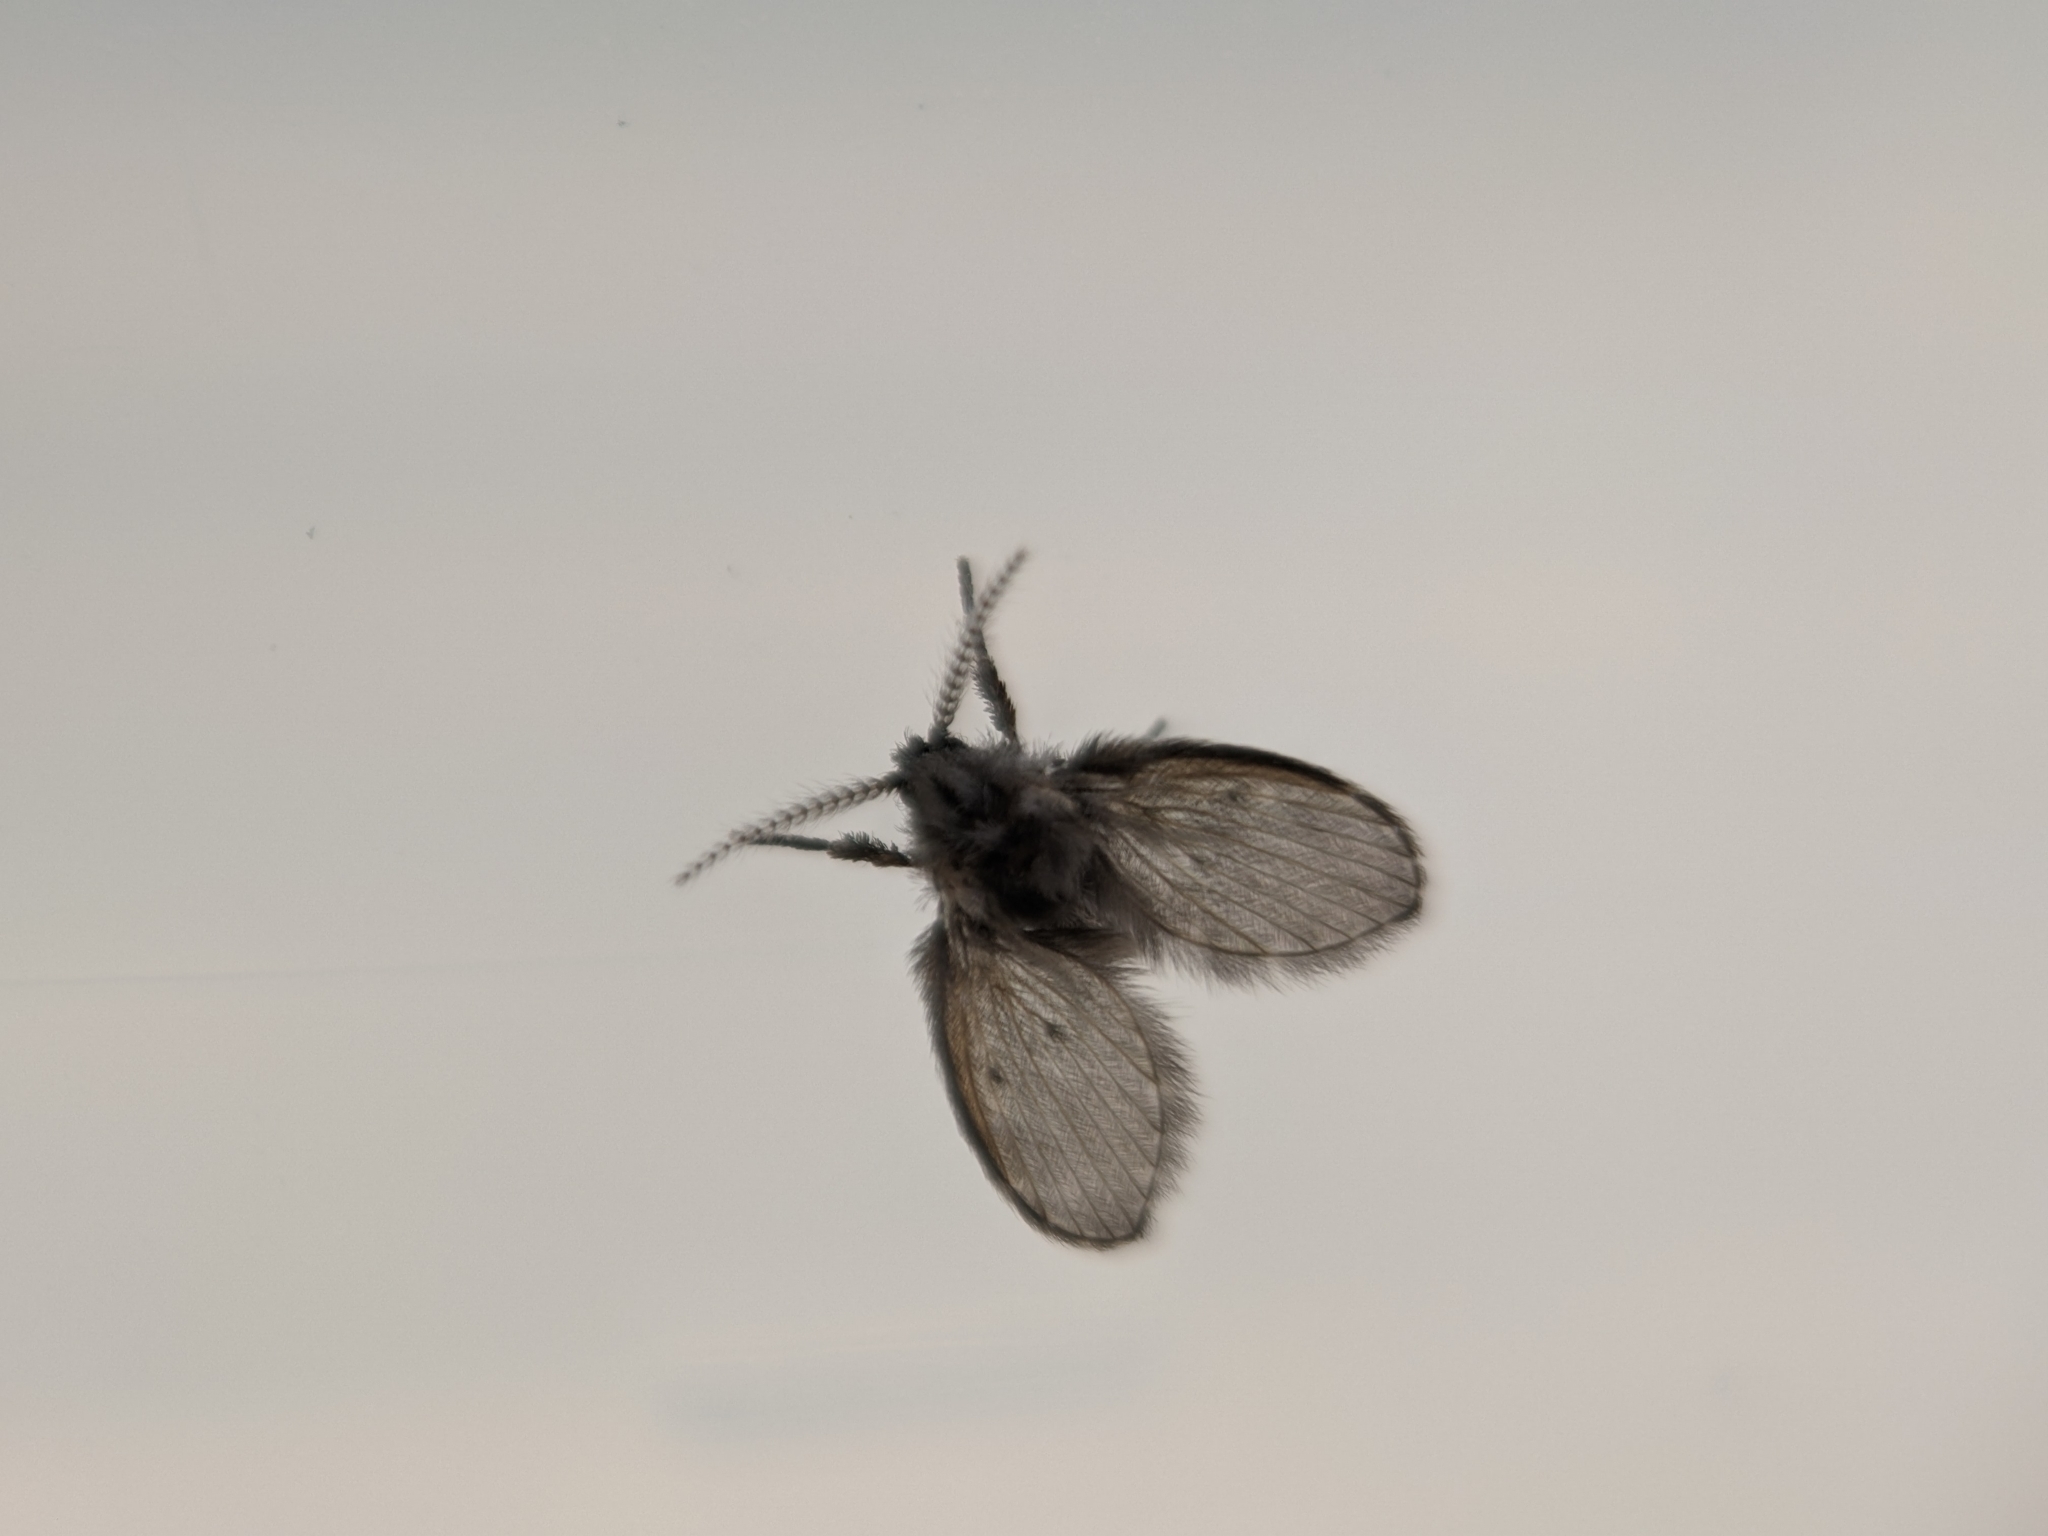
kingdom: Animalia
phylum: Arthropoda
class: Insecta
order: Diptera
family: Psychodidae
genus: Clogmia
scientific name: Clogmia albipunctatus
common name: White-spotted moth fly
